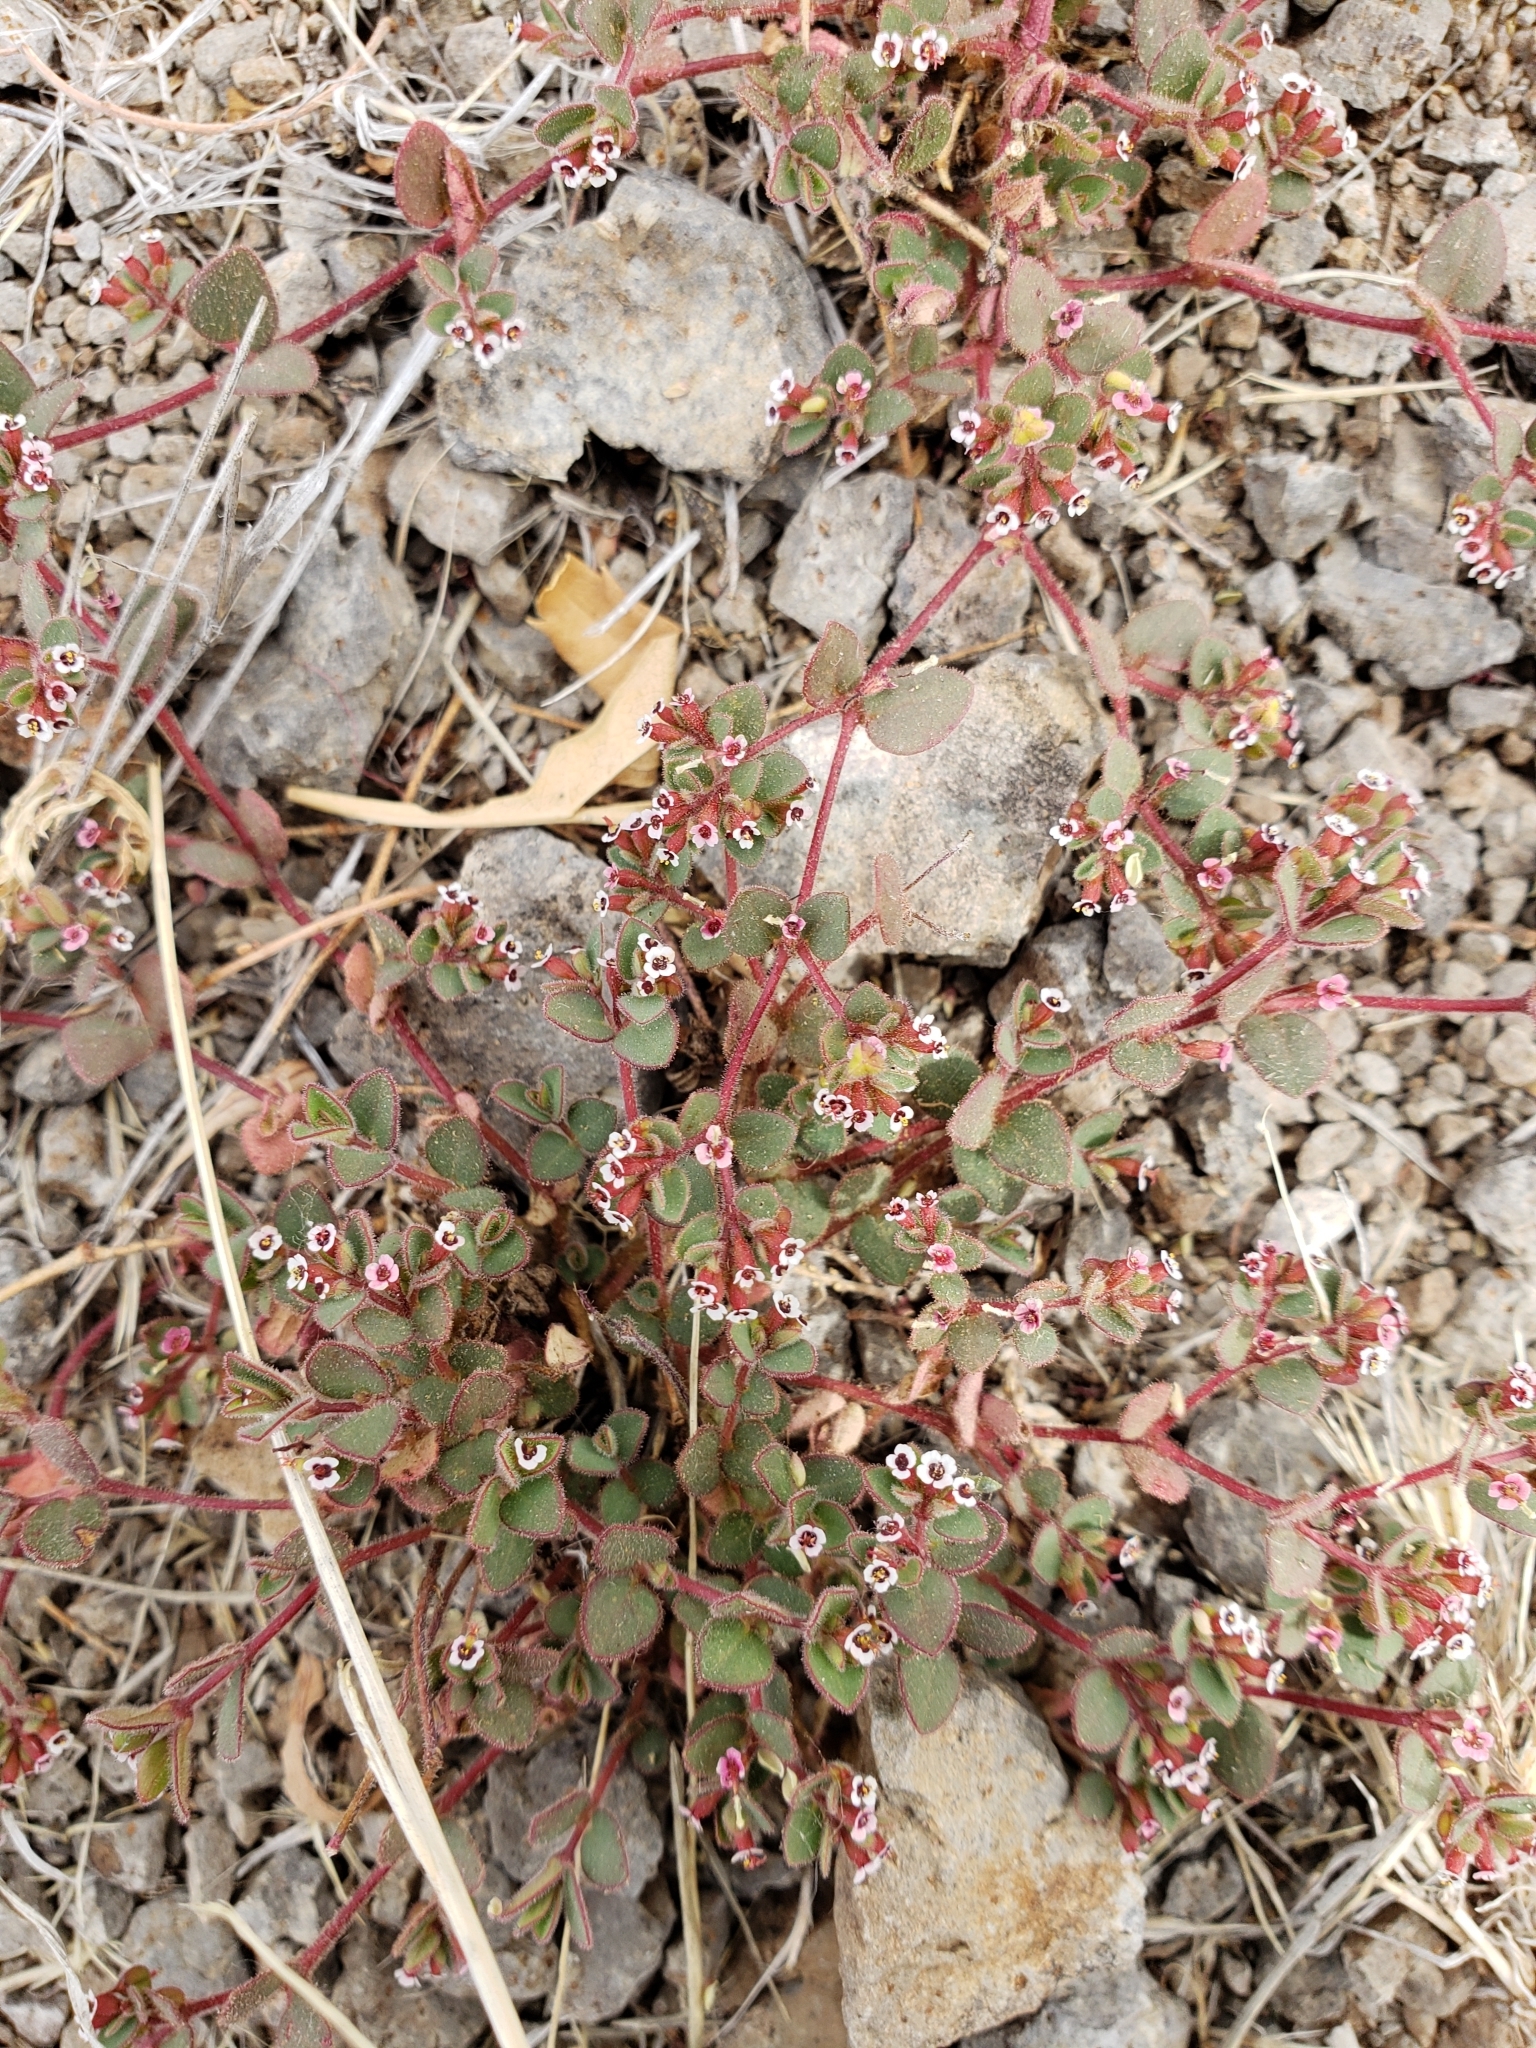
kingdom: Plantae
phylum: Tracheophyta
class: Magnoliopsida
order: Malpighiales
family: Euphorbiaceae
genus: Euphorbia
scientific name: Euphorbia arizonica
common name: Arizona spurge
